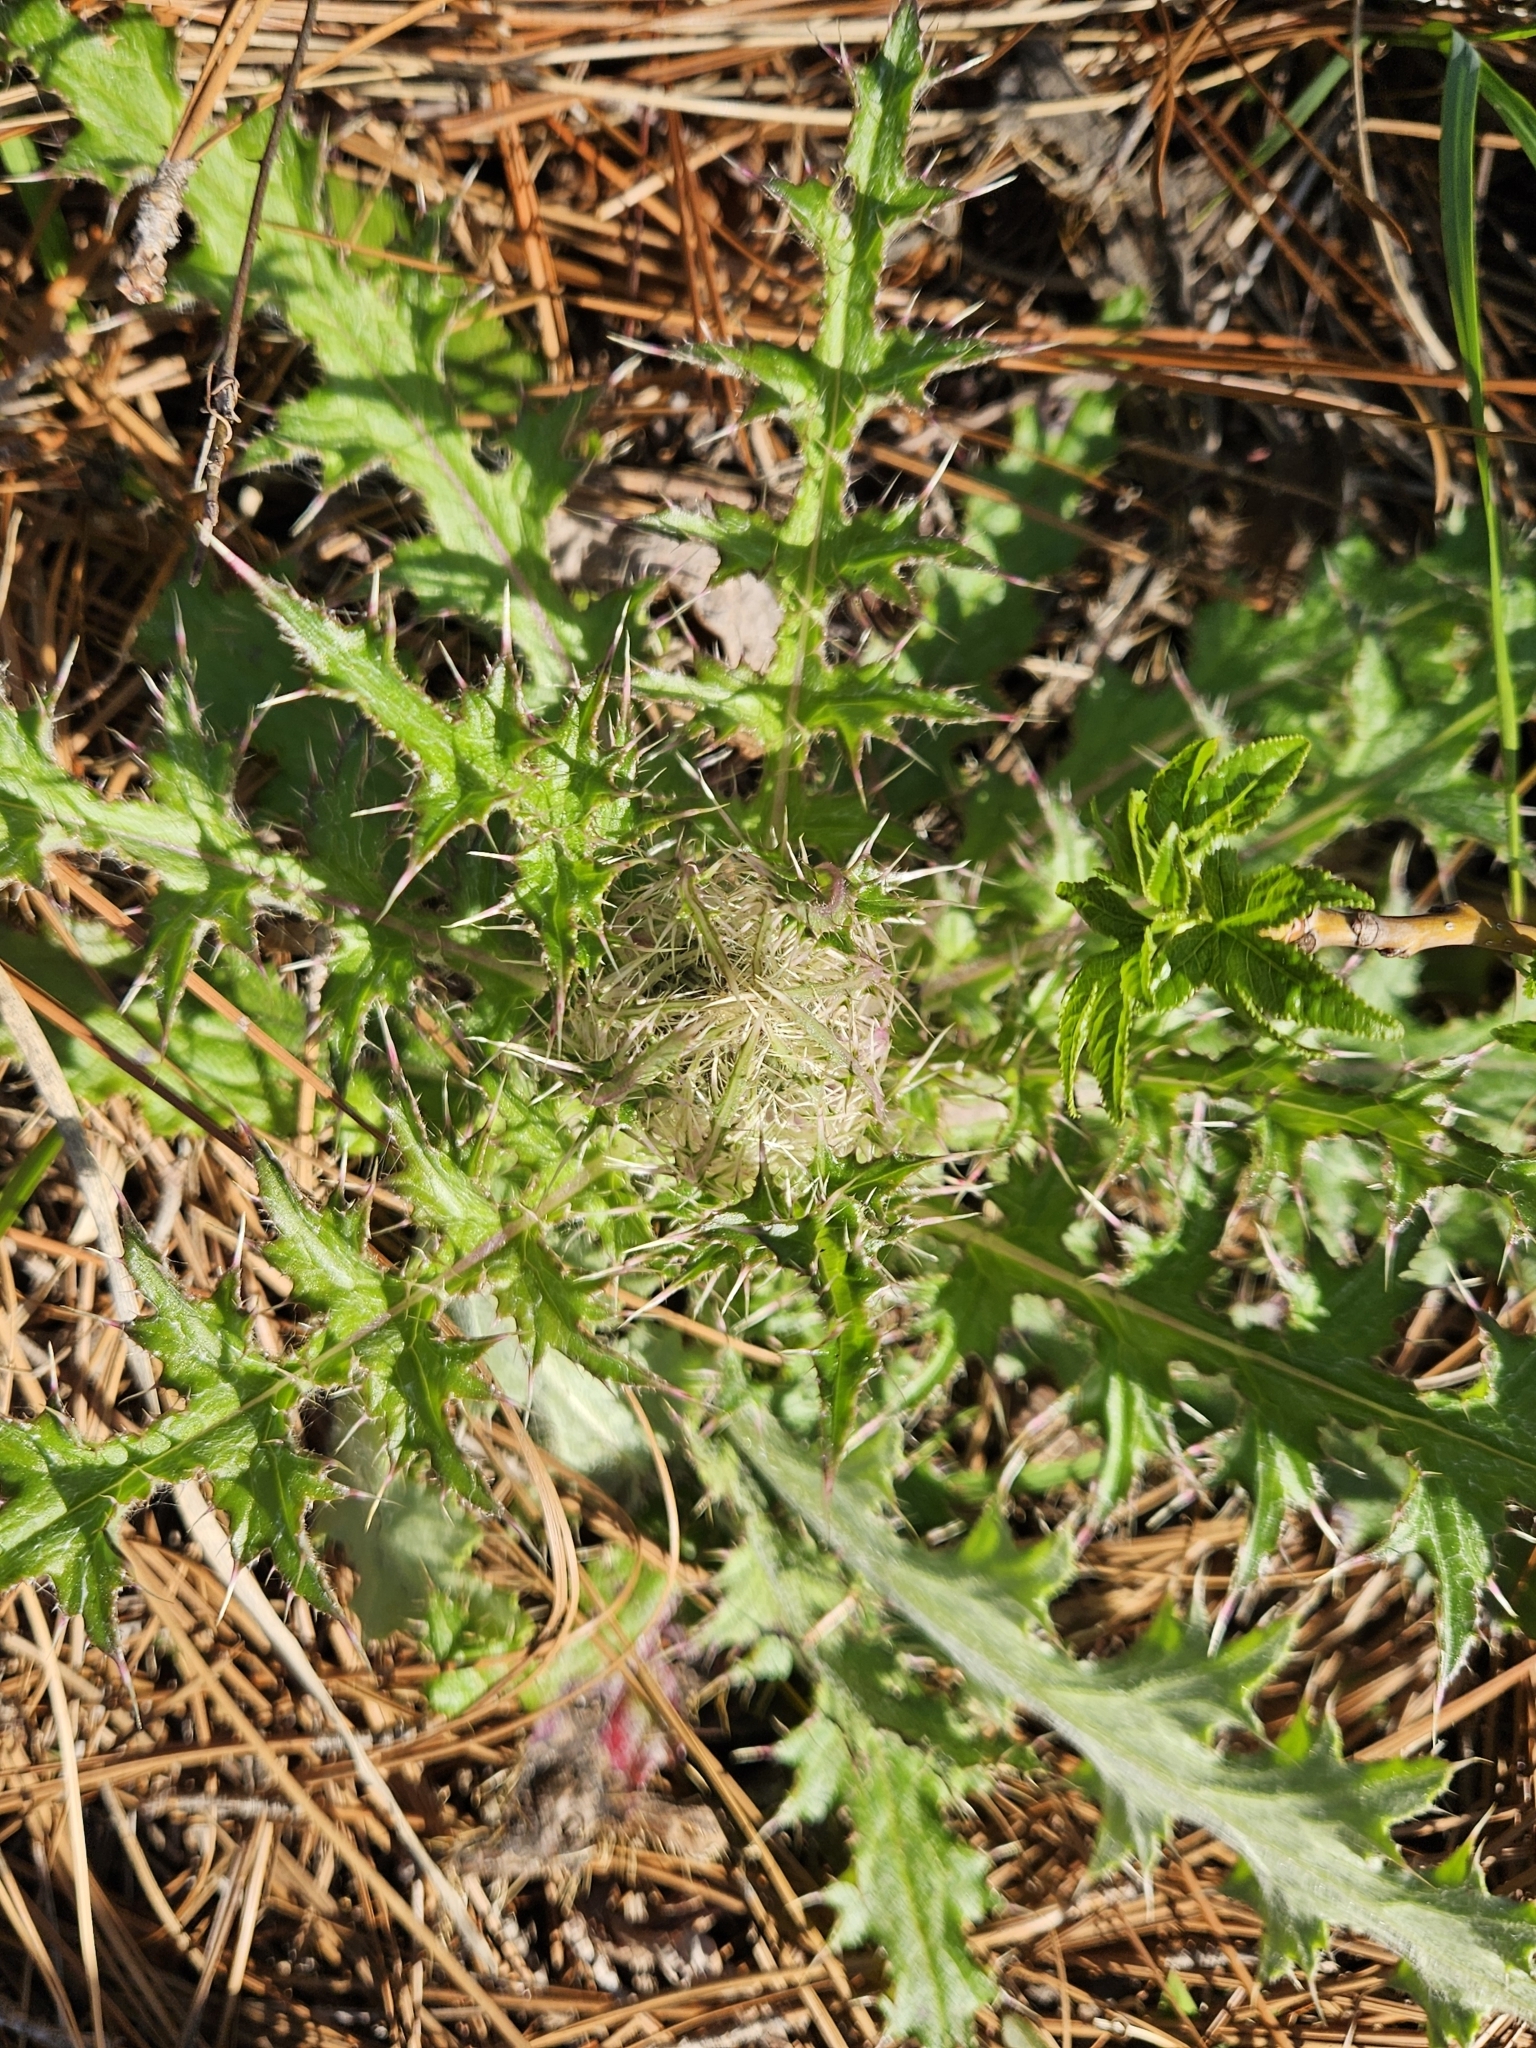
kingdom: Plantae
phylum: Tracheophyta
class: Magnoliopsida
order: Asterales
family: Asteraceae
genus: Cirsium
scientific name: Cirsium horridulum
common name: Bristly thistle
